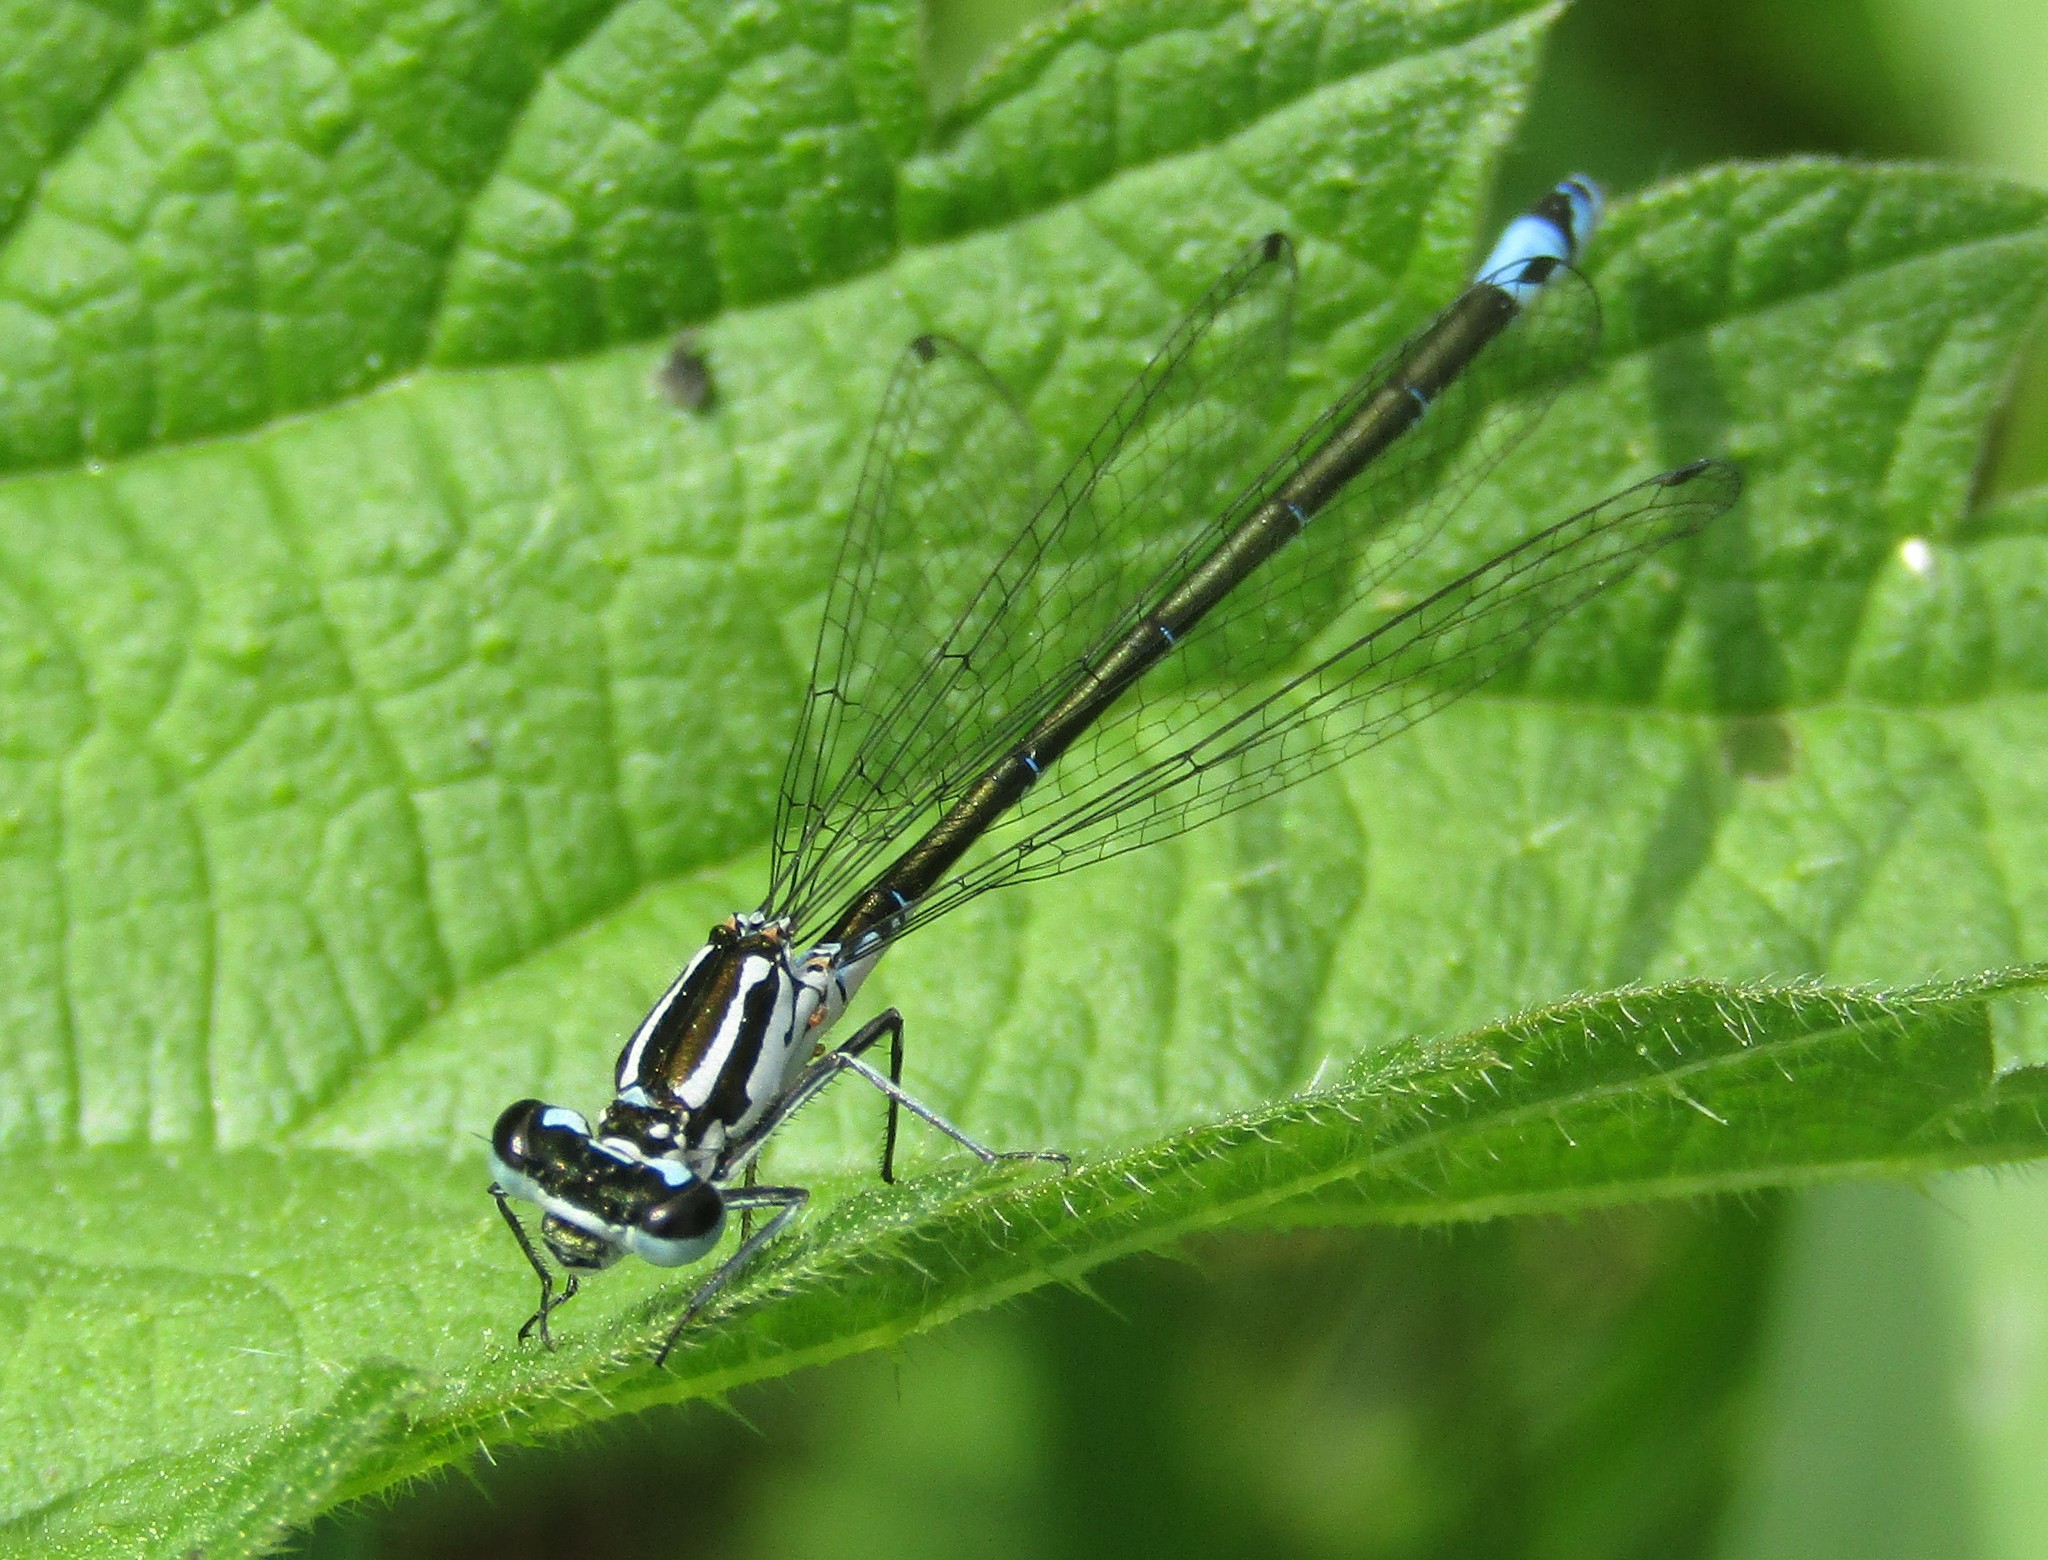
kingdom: Animalia
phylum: Arthropoda
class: Insecta
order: Odonata
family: Coenagrionidae
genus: Coenagrion
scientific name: Coenagrion pulchellum
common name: Variable bluet
